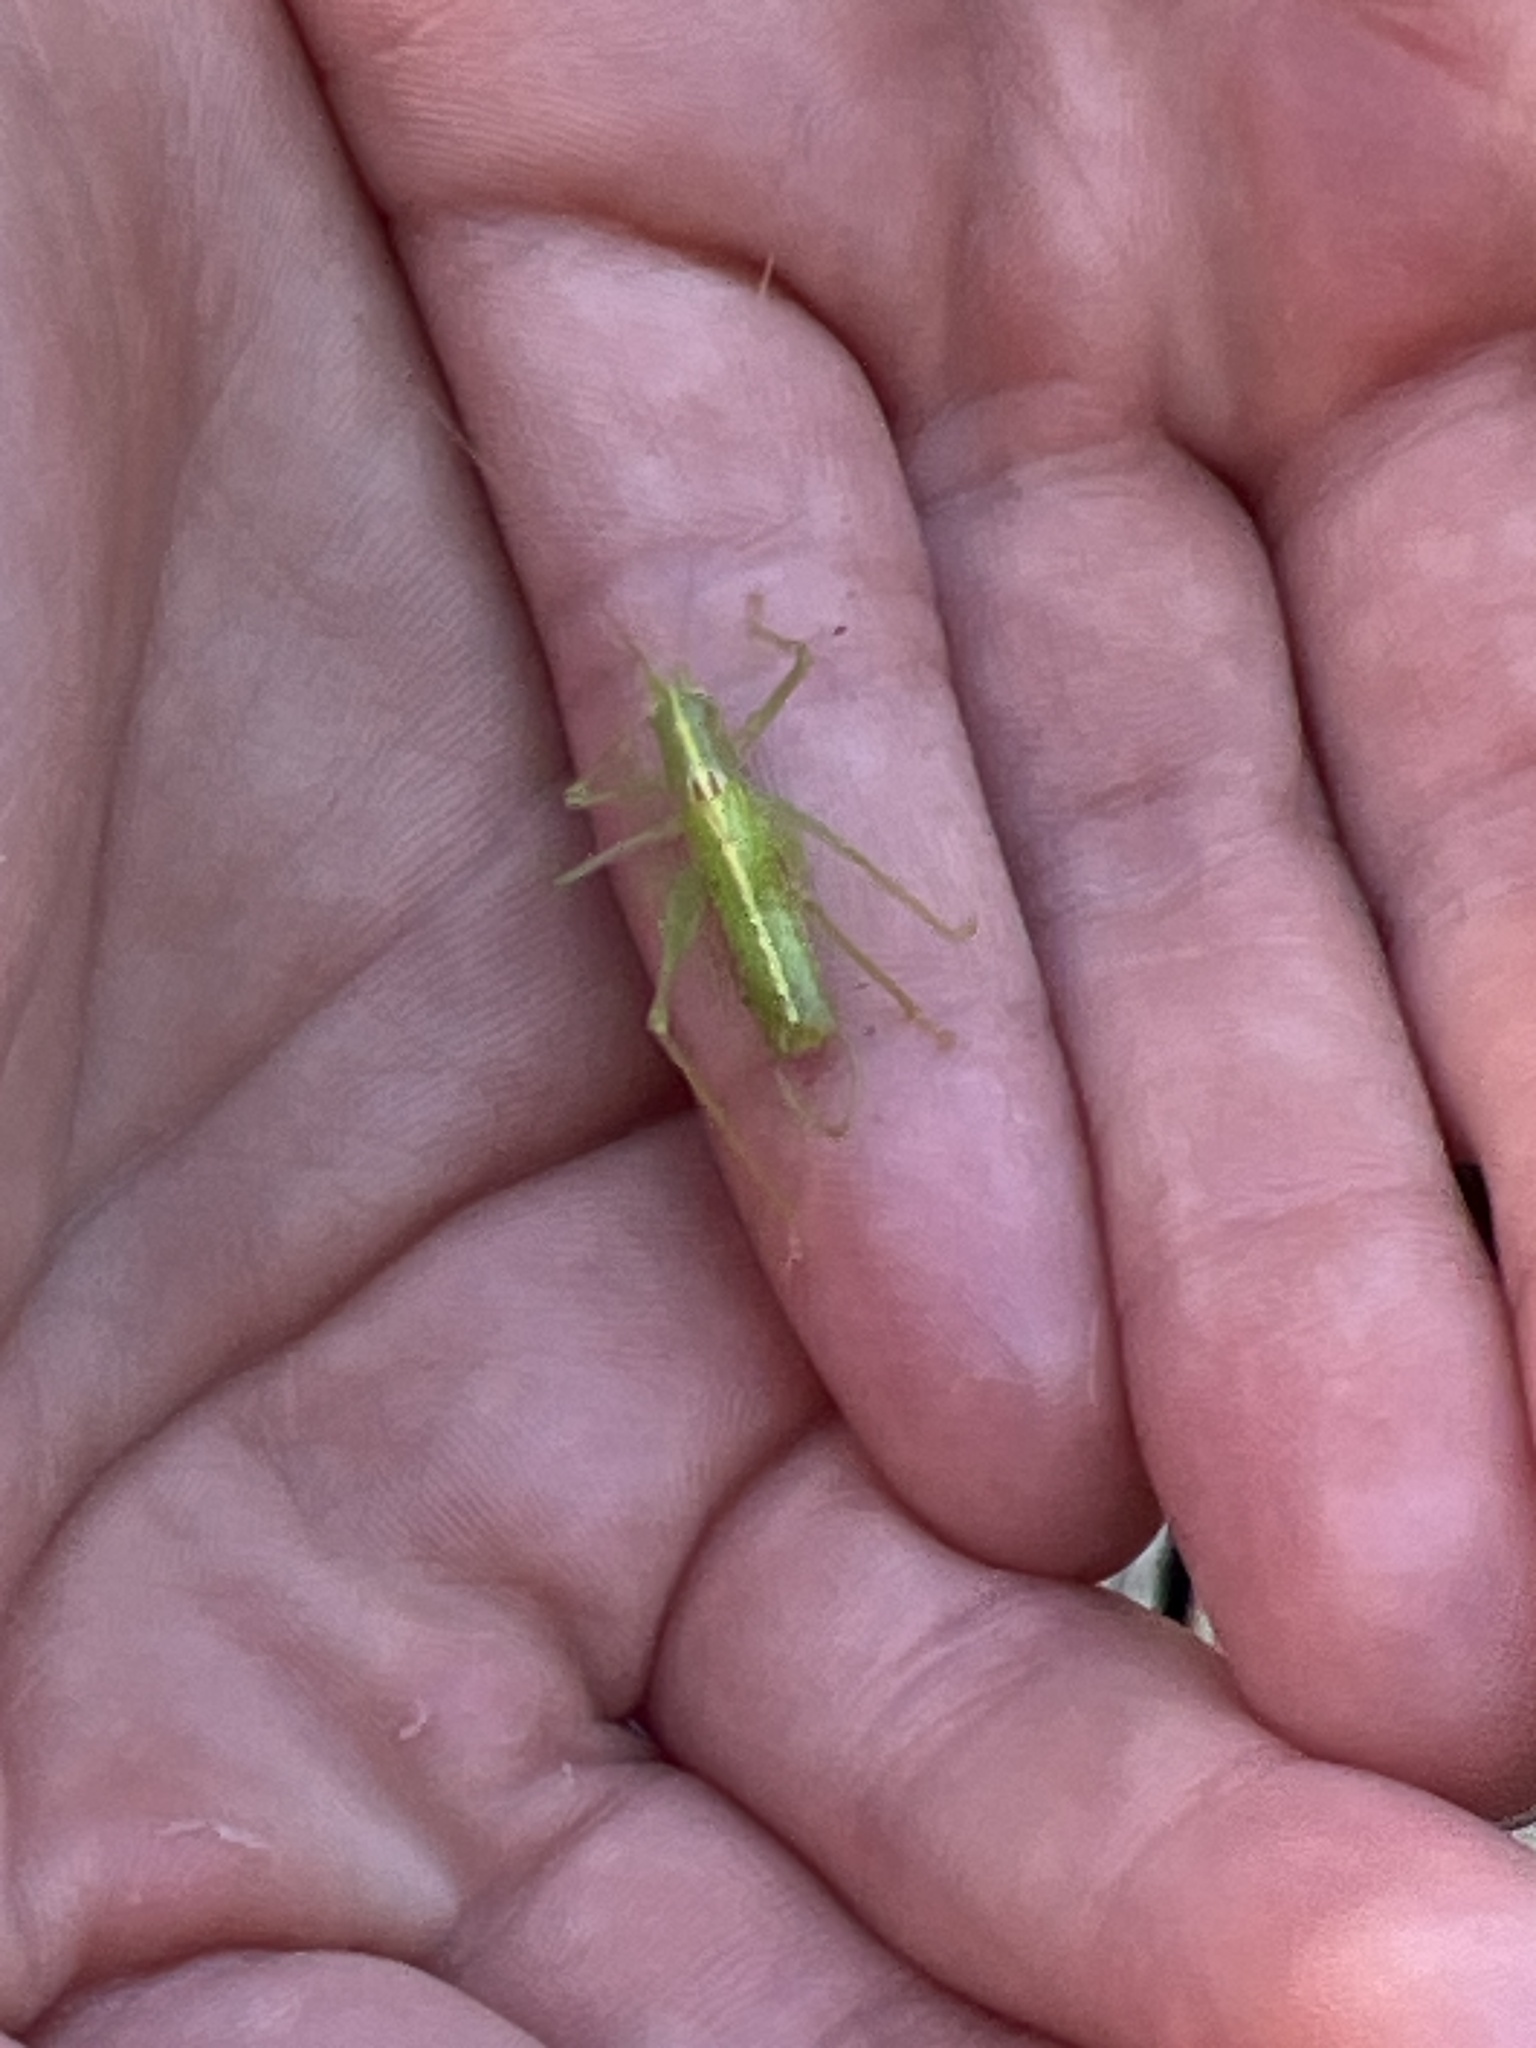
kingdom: Animalia
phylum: Arthropoda
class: Insecta
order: Orthoptera
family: Tettigoniidae
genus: Meconema
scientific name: Meconema meridionale
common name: Southern oak bush-cricket
